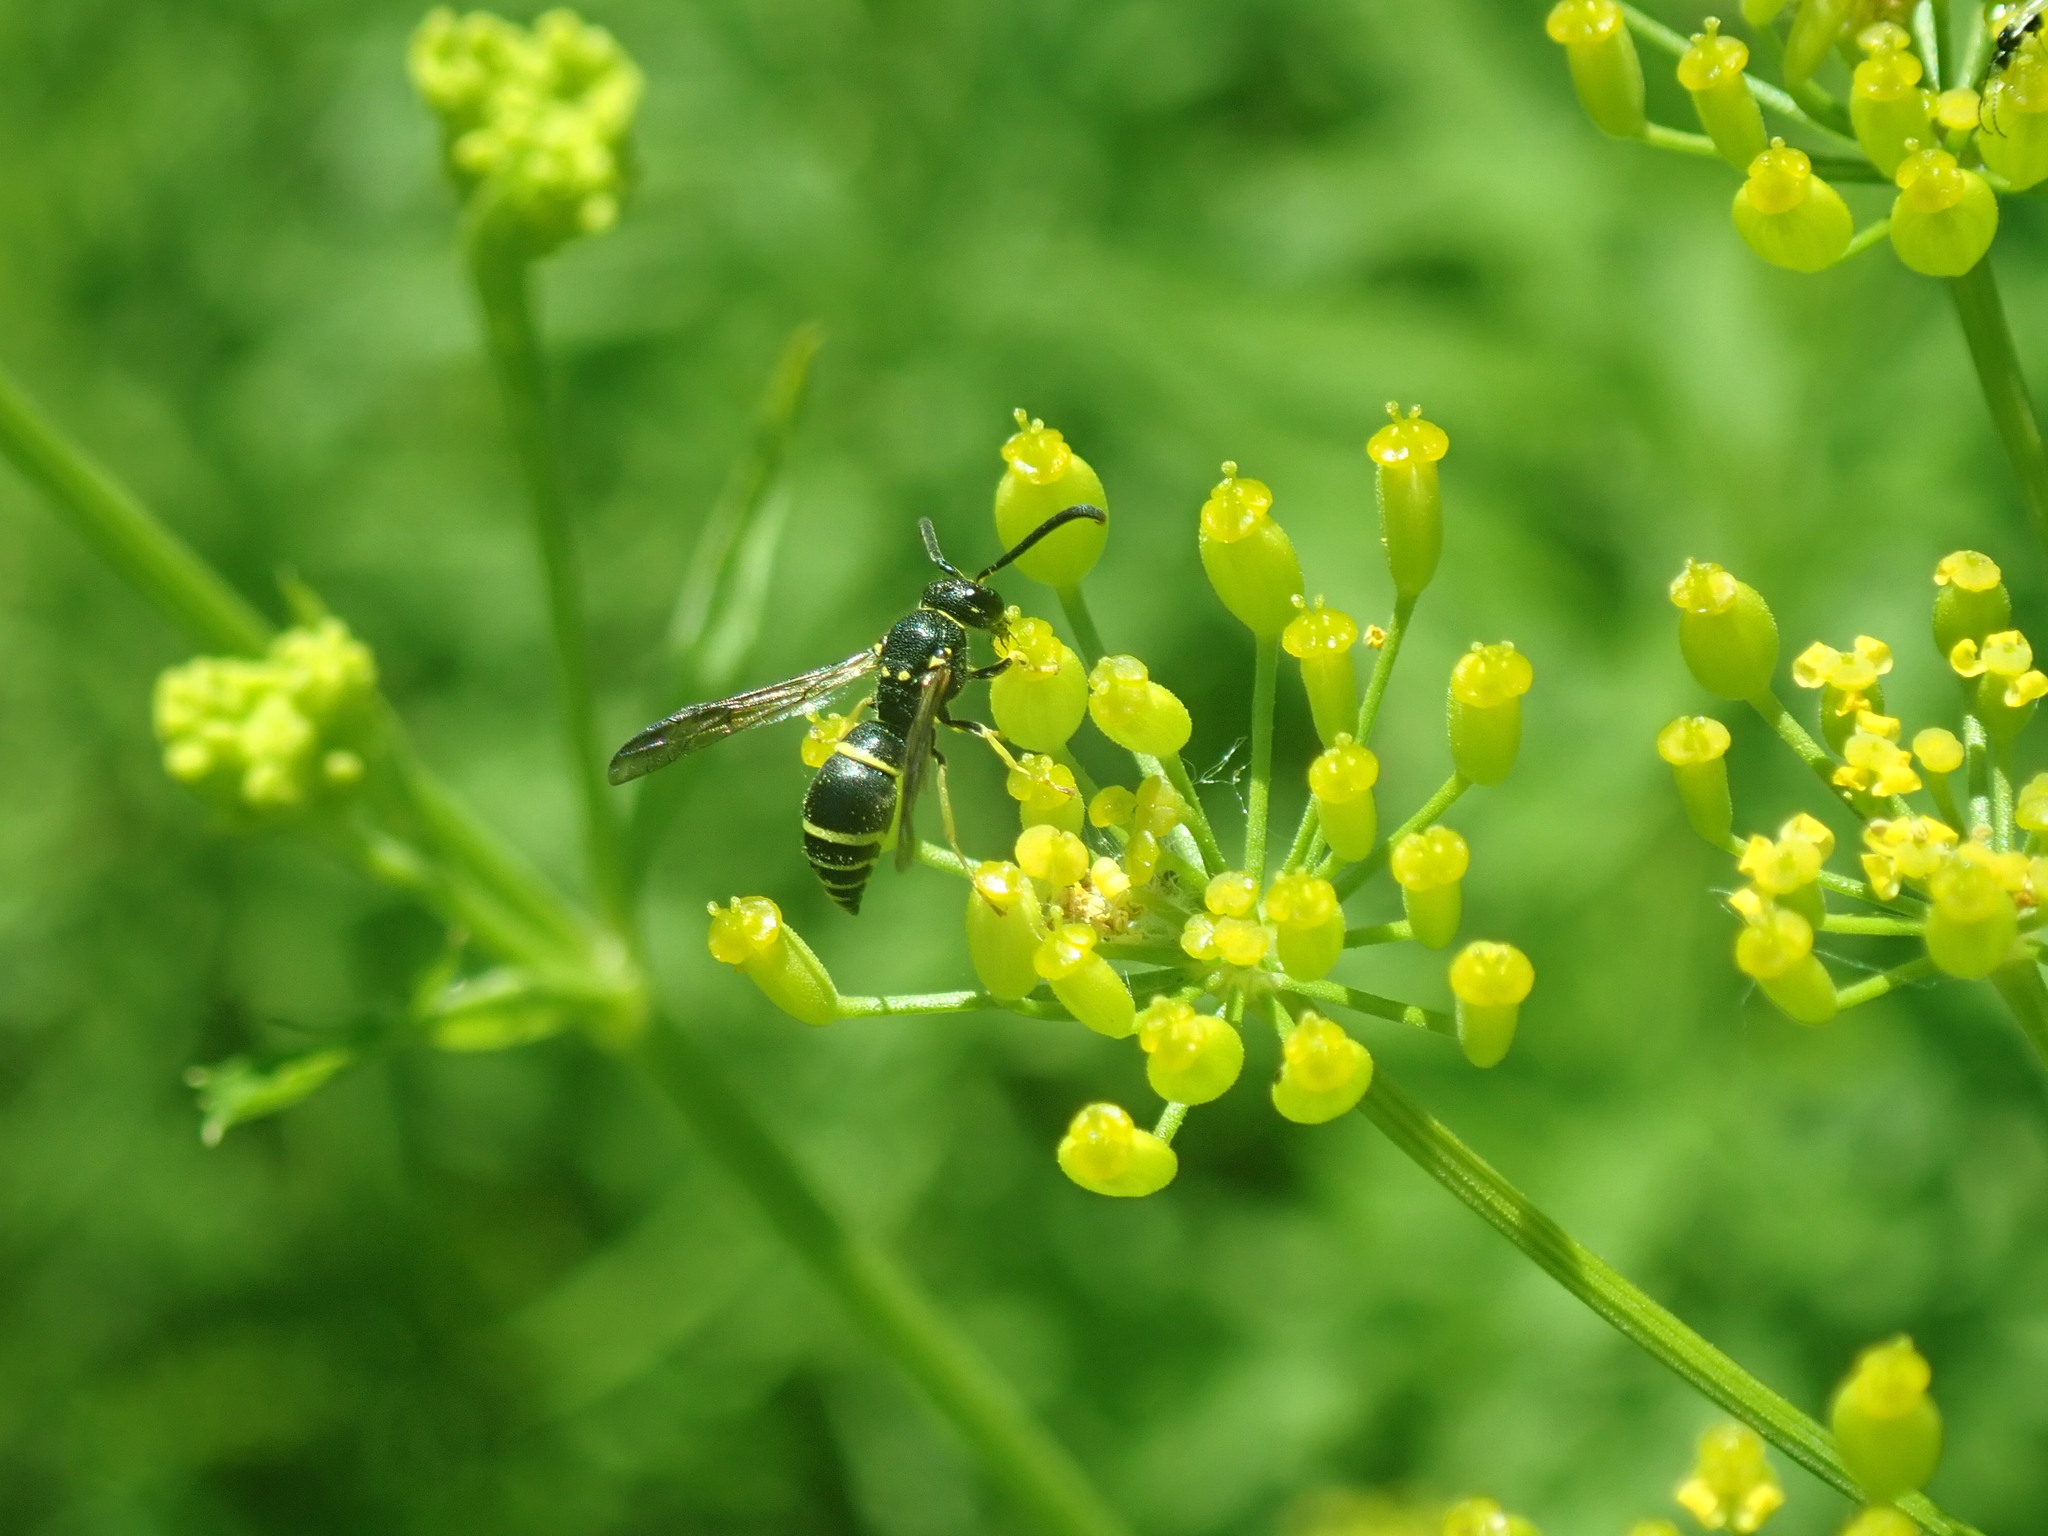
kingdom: Animalia
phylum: Arthropoda
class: Insecta
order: Hymenoptera
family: Vespidae
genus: Ancistrocerus
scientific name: Ancistrocerus
